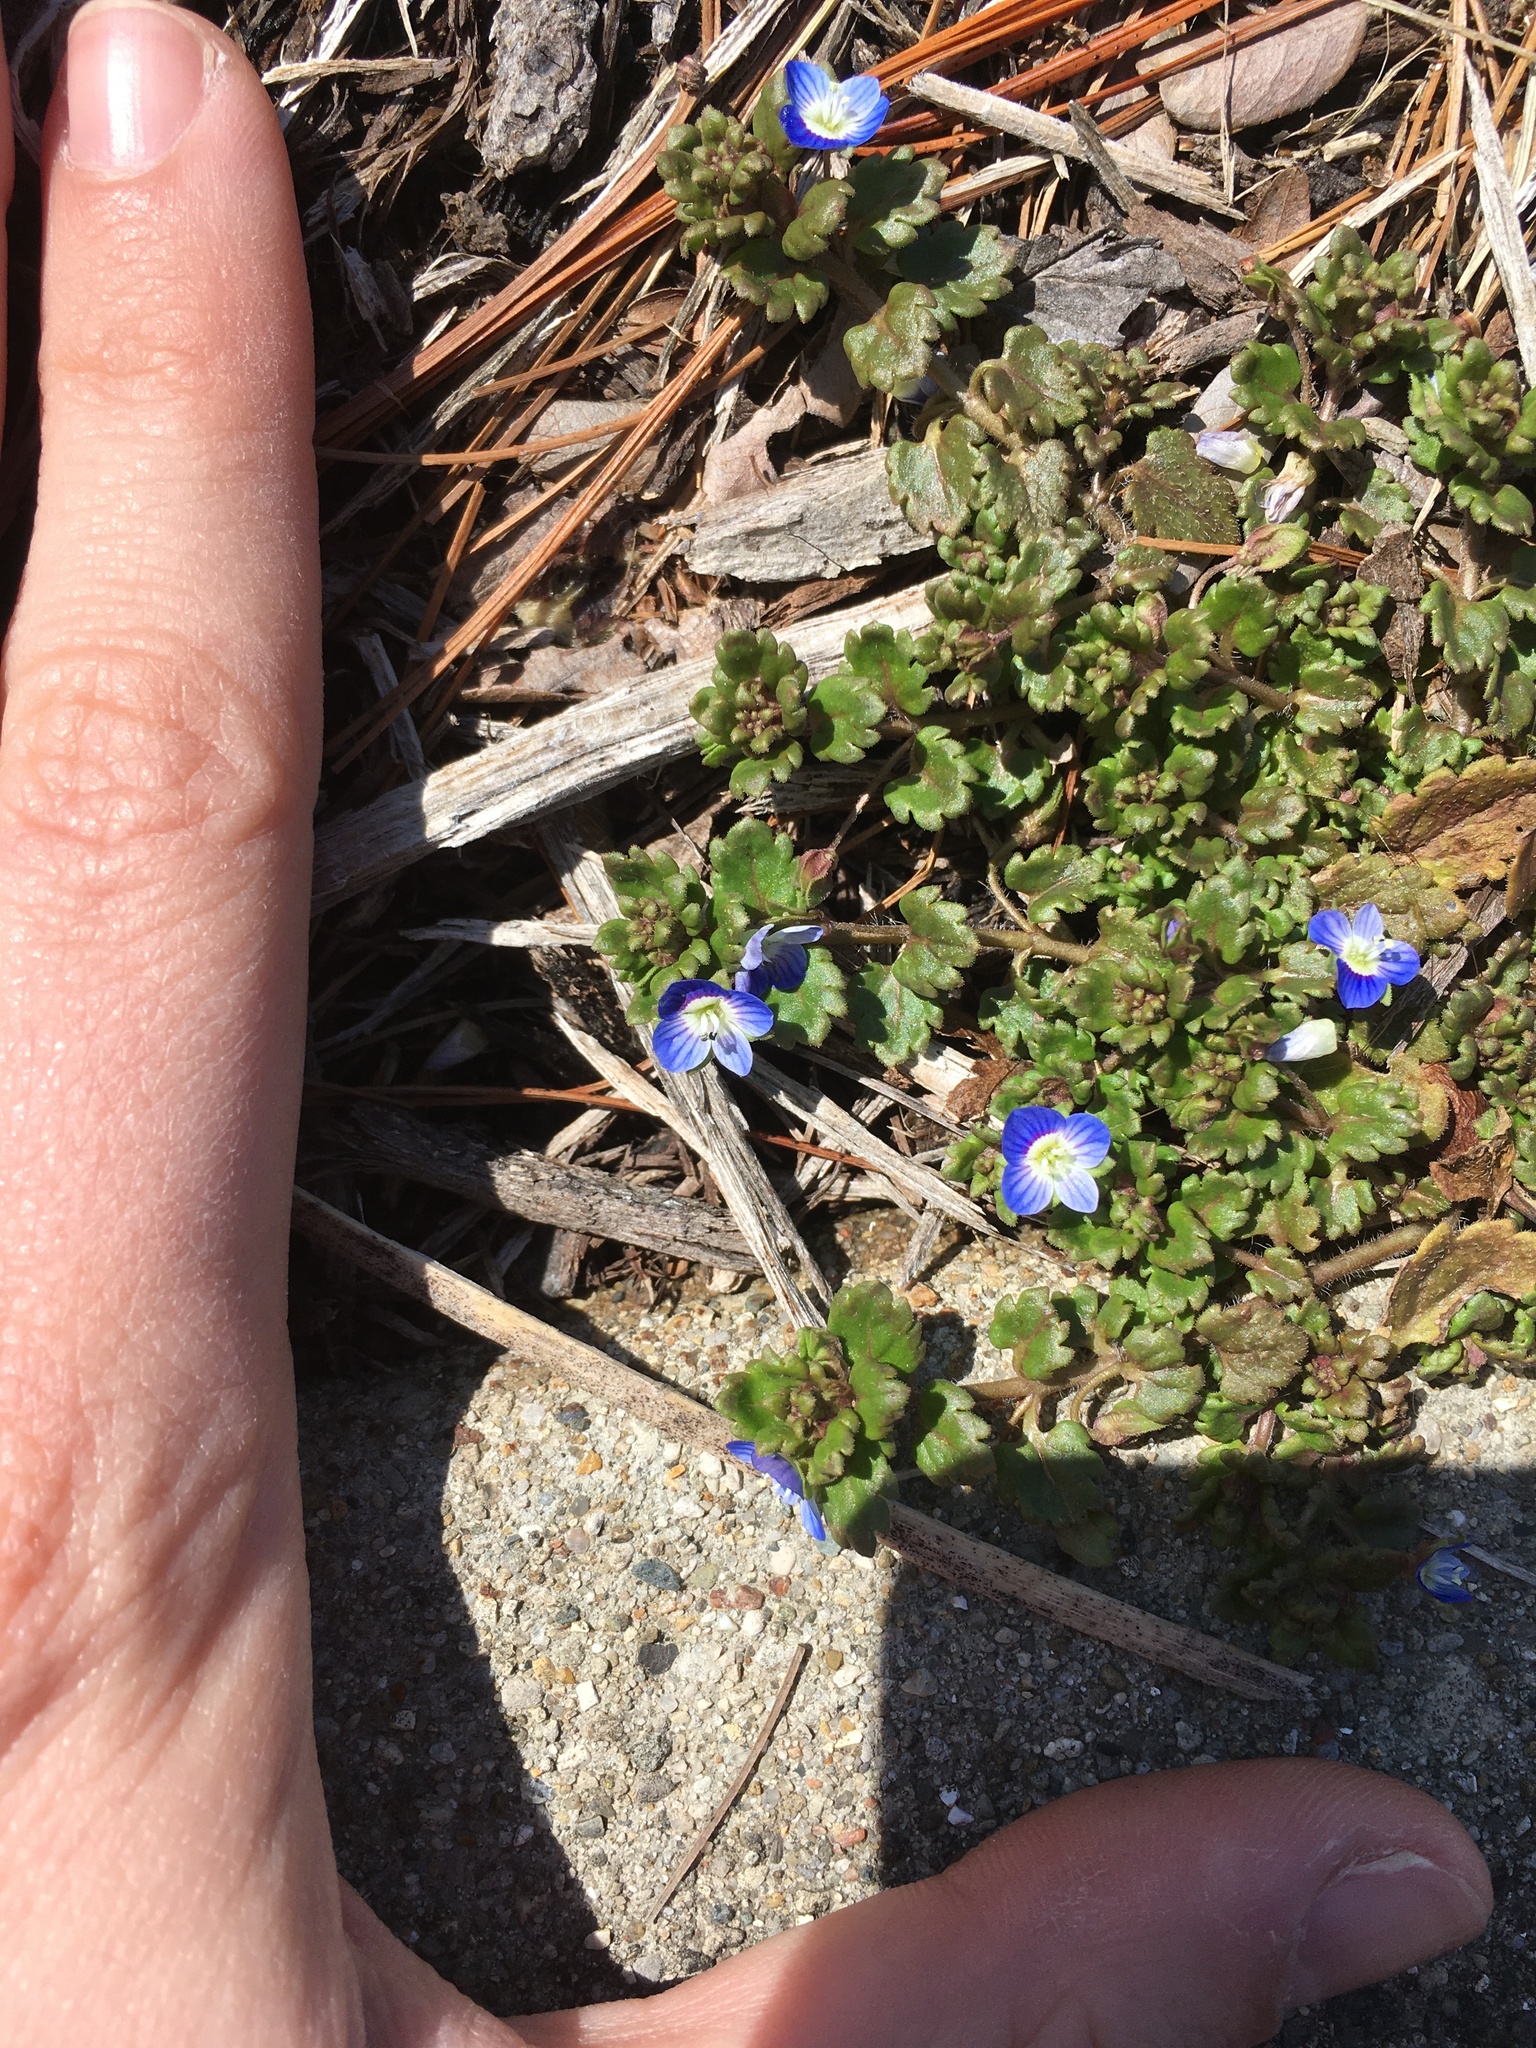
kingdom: Plantae
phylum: Tracheophyta
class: Magnoliopsida
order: Lamiales
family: Plantaginaceae
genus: Veronica
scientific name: Veronica polita
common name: Grey field-speedwell
